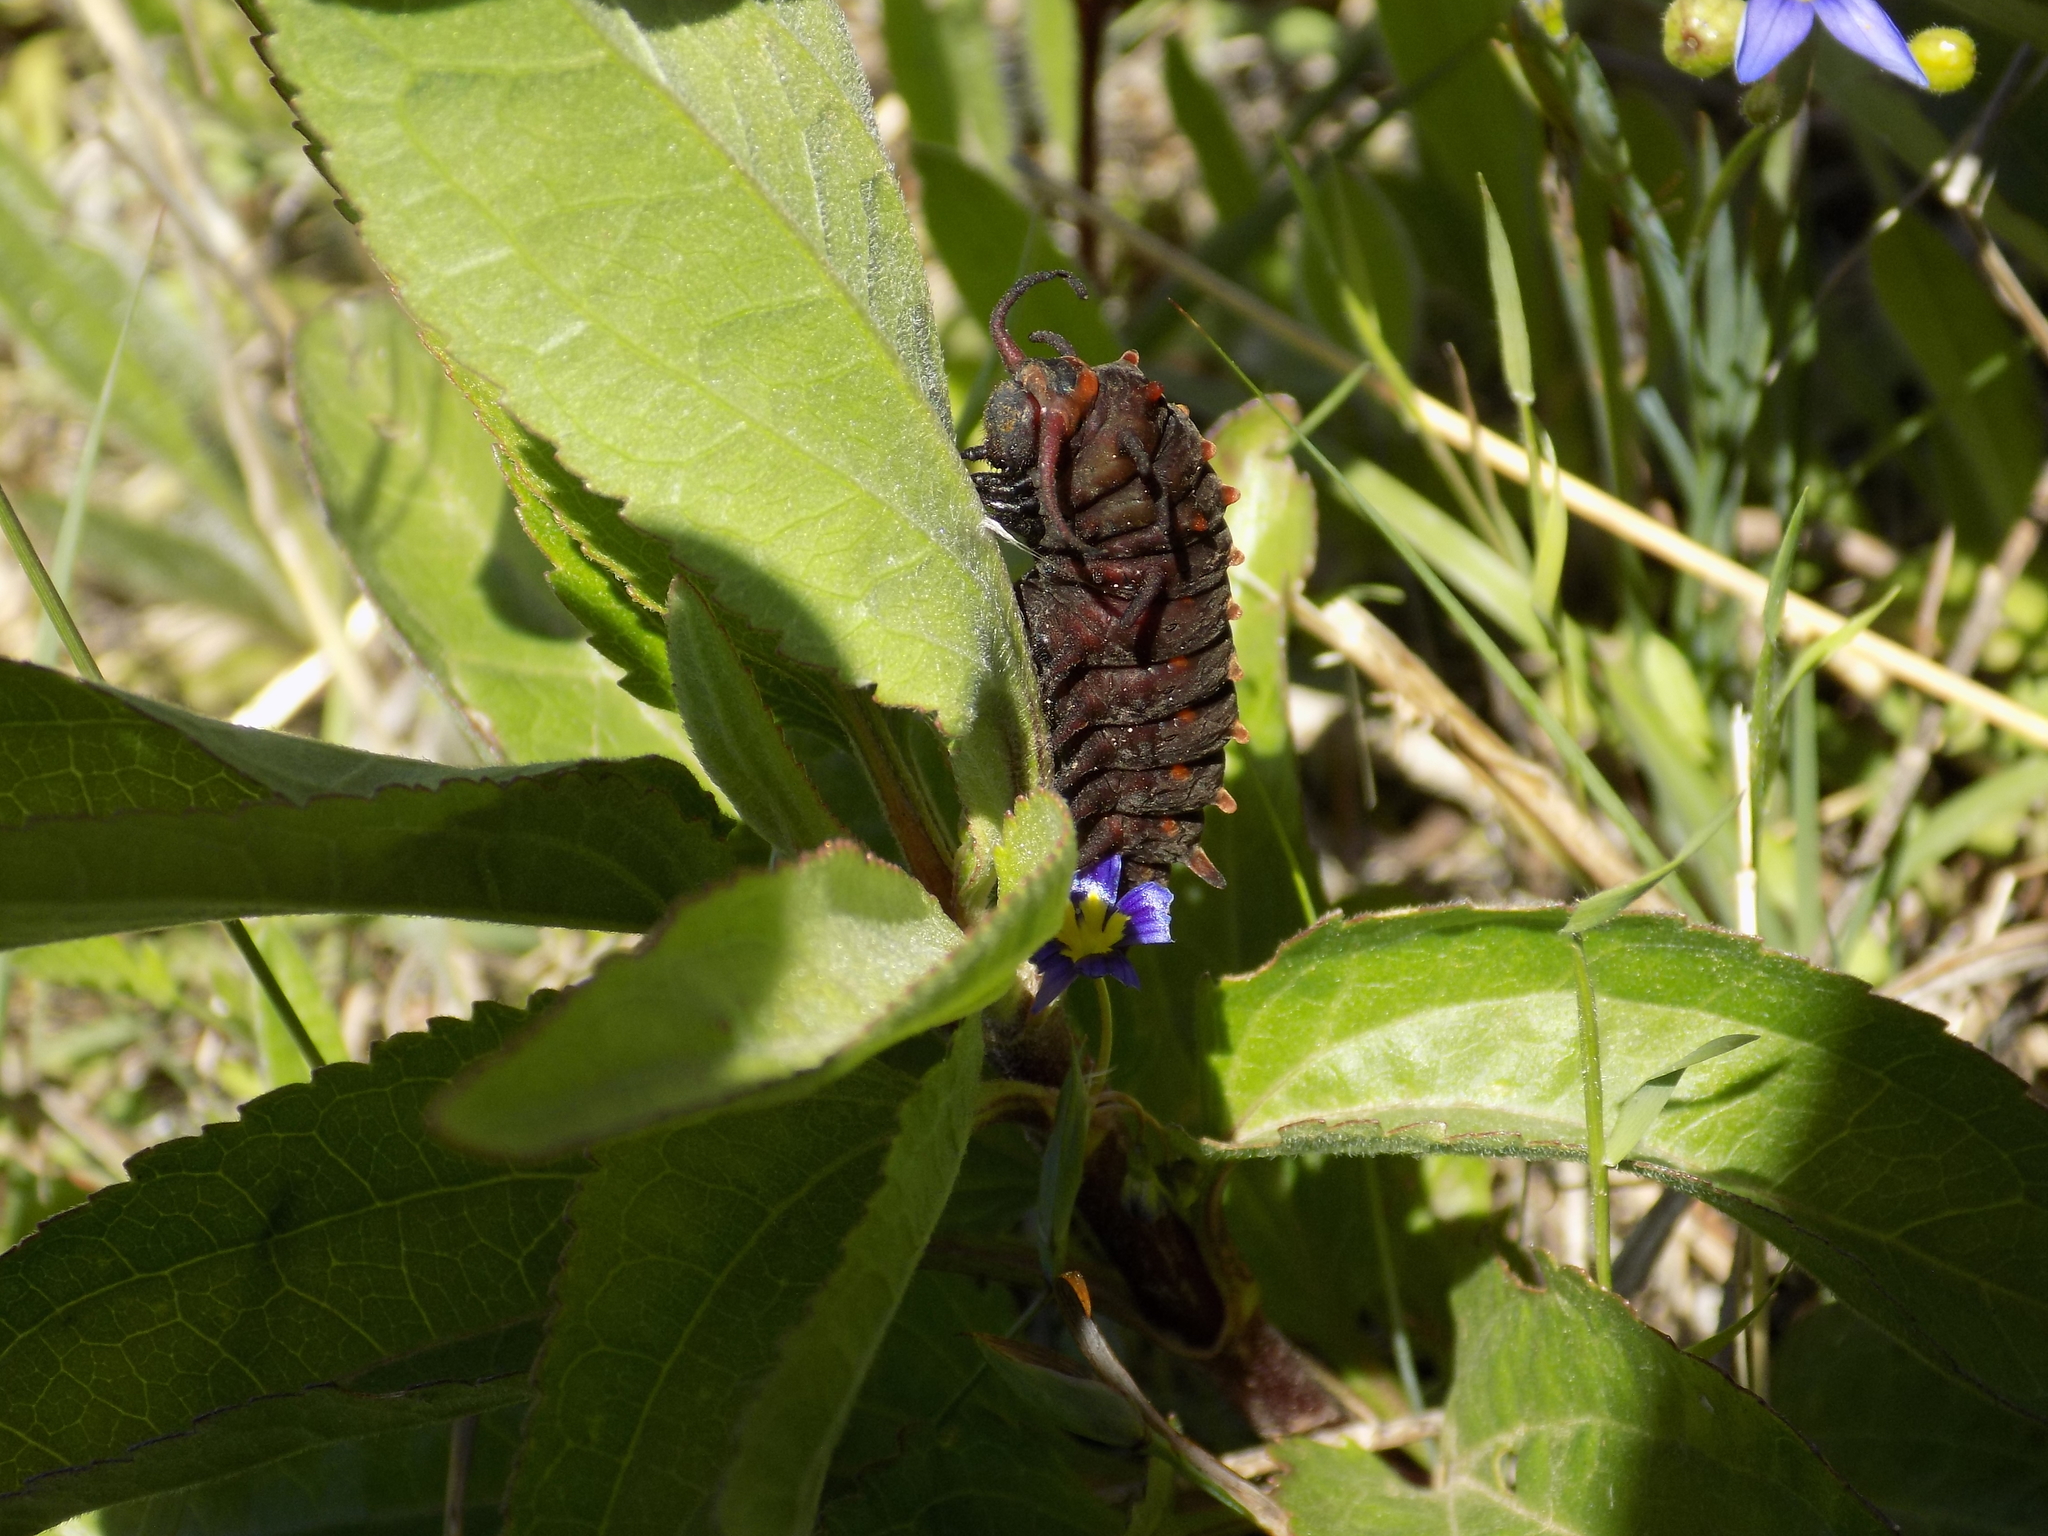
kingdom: Animalia
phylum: Arthropoda
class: Insecta
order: Lepidoptera
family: Papilionidae
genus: Battus
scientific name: Battus philenor
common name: Pipevine swallowtail
